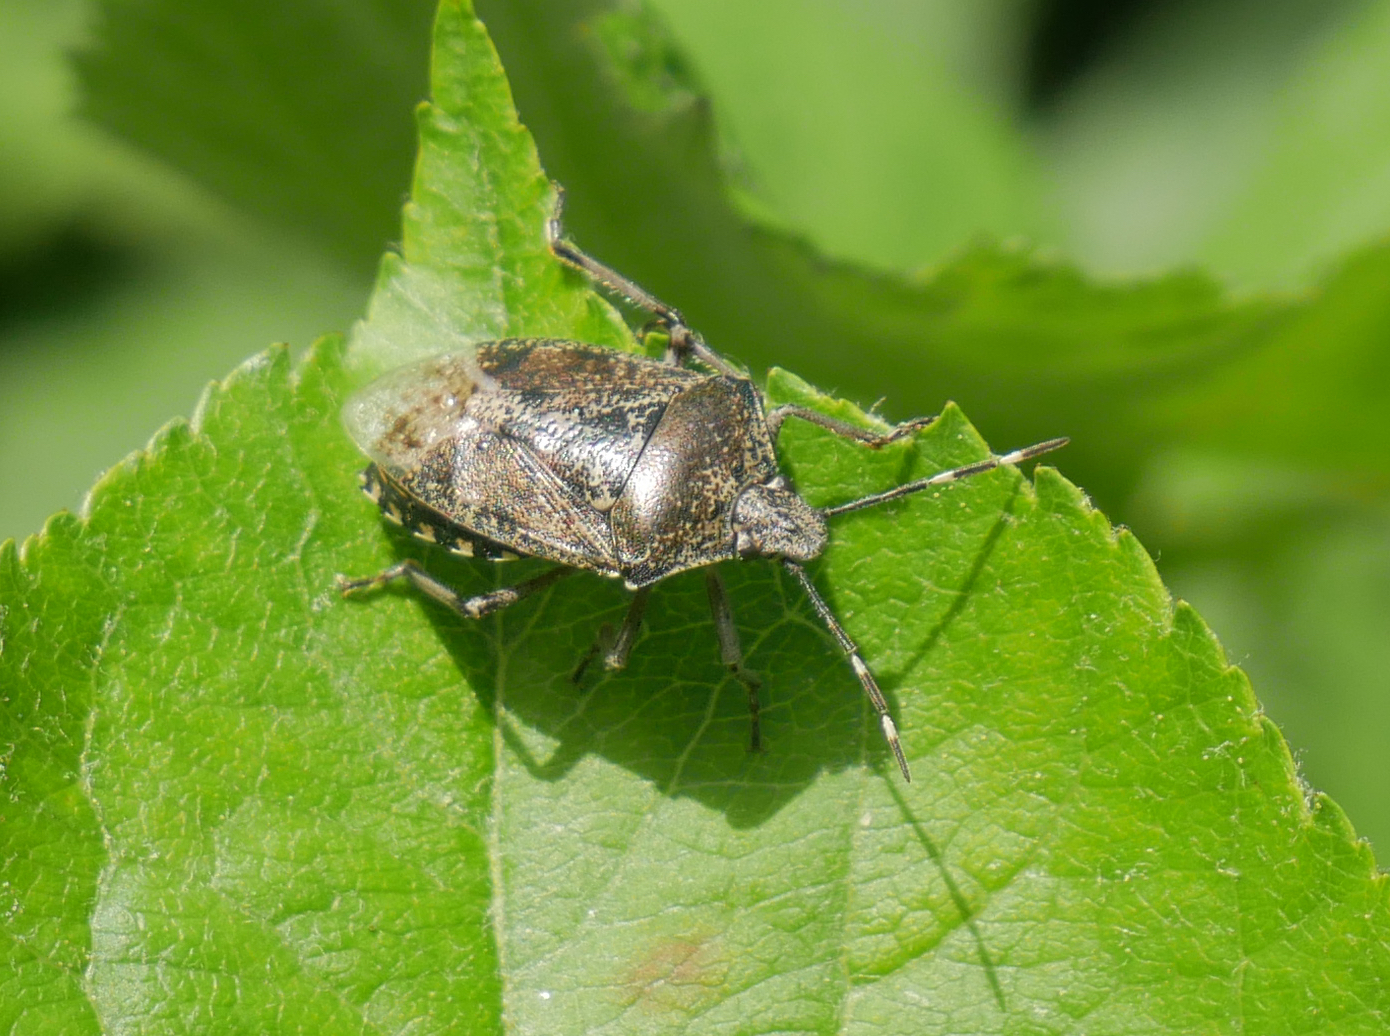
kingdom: Animalia
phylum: Arthropoda
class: Insecta
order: Hemiptera
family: Pentatomidae
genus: Rhaphigaster
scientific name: Rhaphigaster nebulosa
